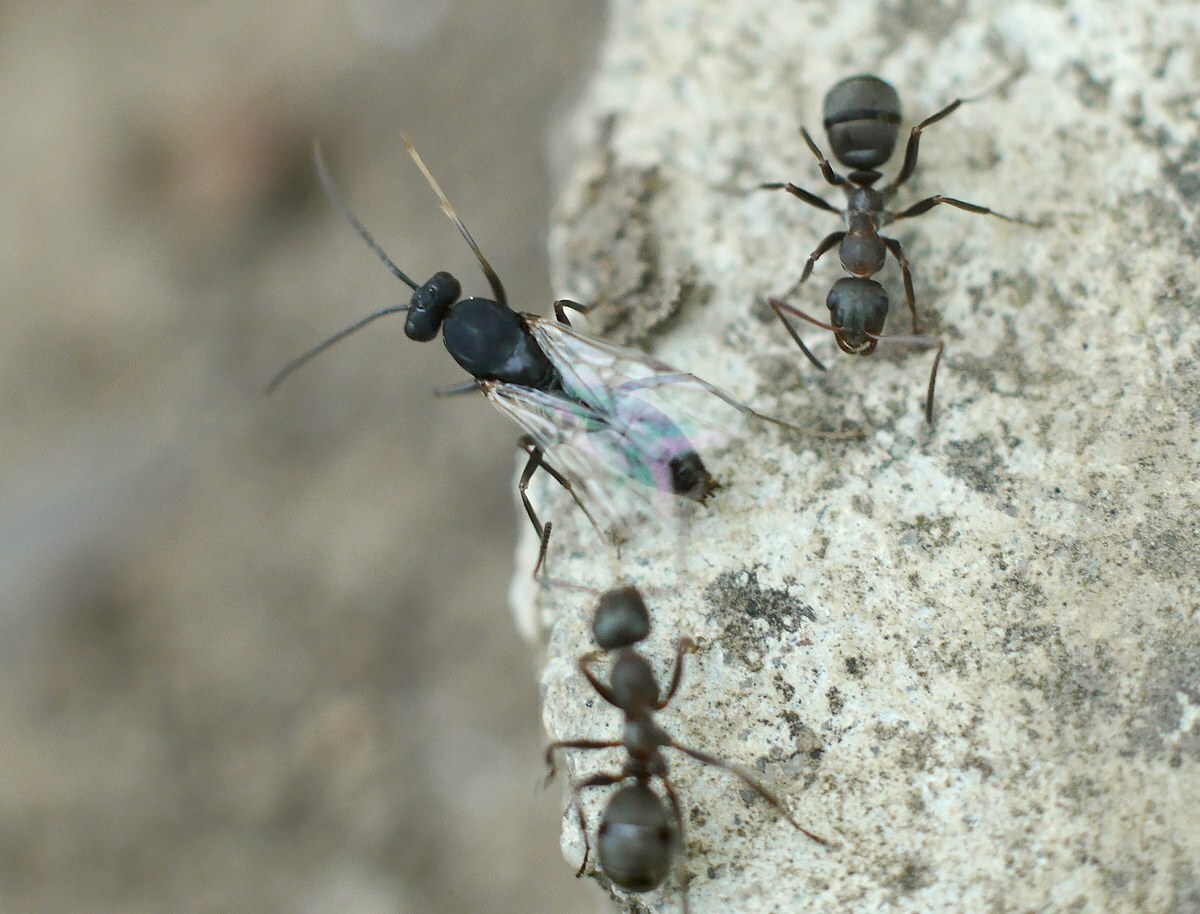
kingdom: Animalia
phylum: Arthropoda
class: Insecta
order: Hymenoptera
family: Formicidae
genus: Polyergus
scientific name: Polyergus rufescens
